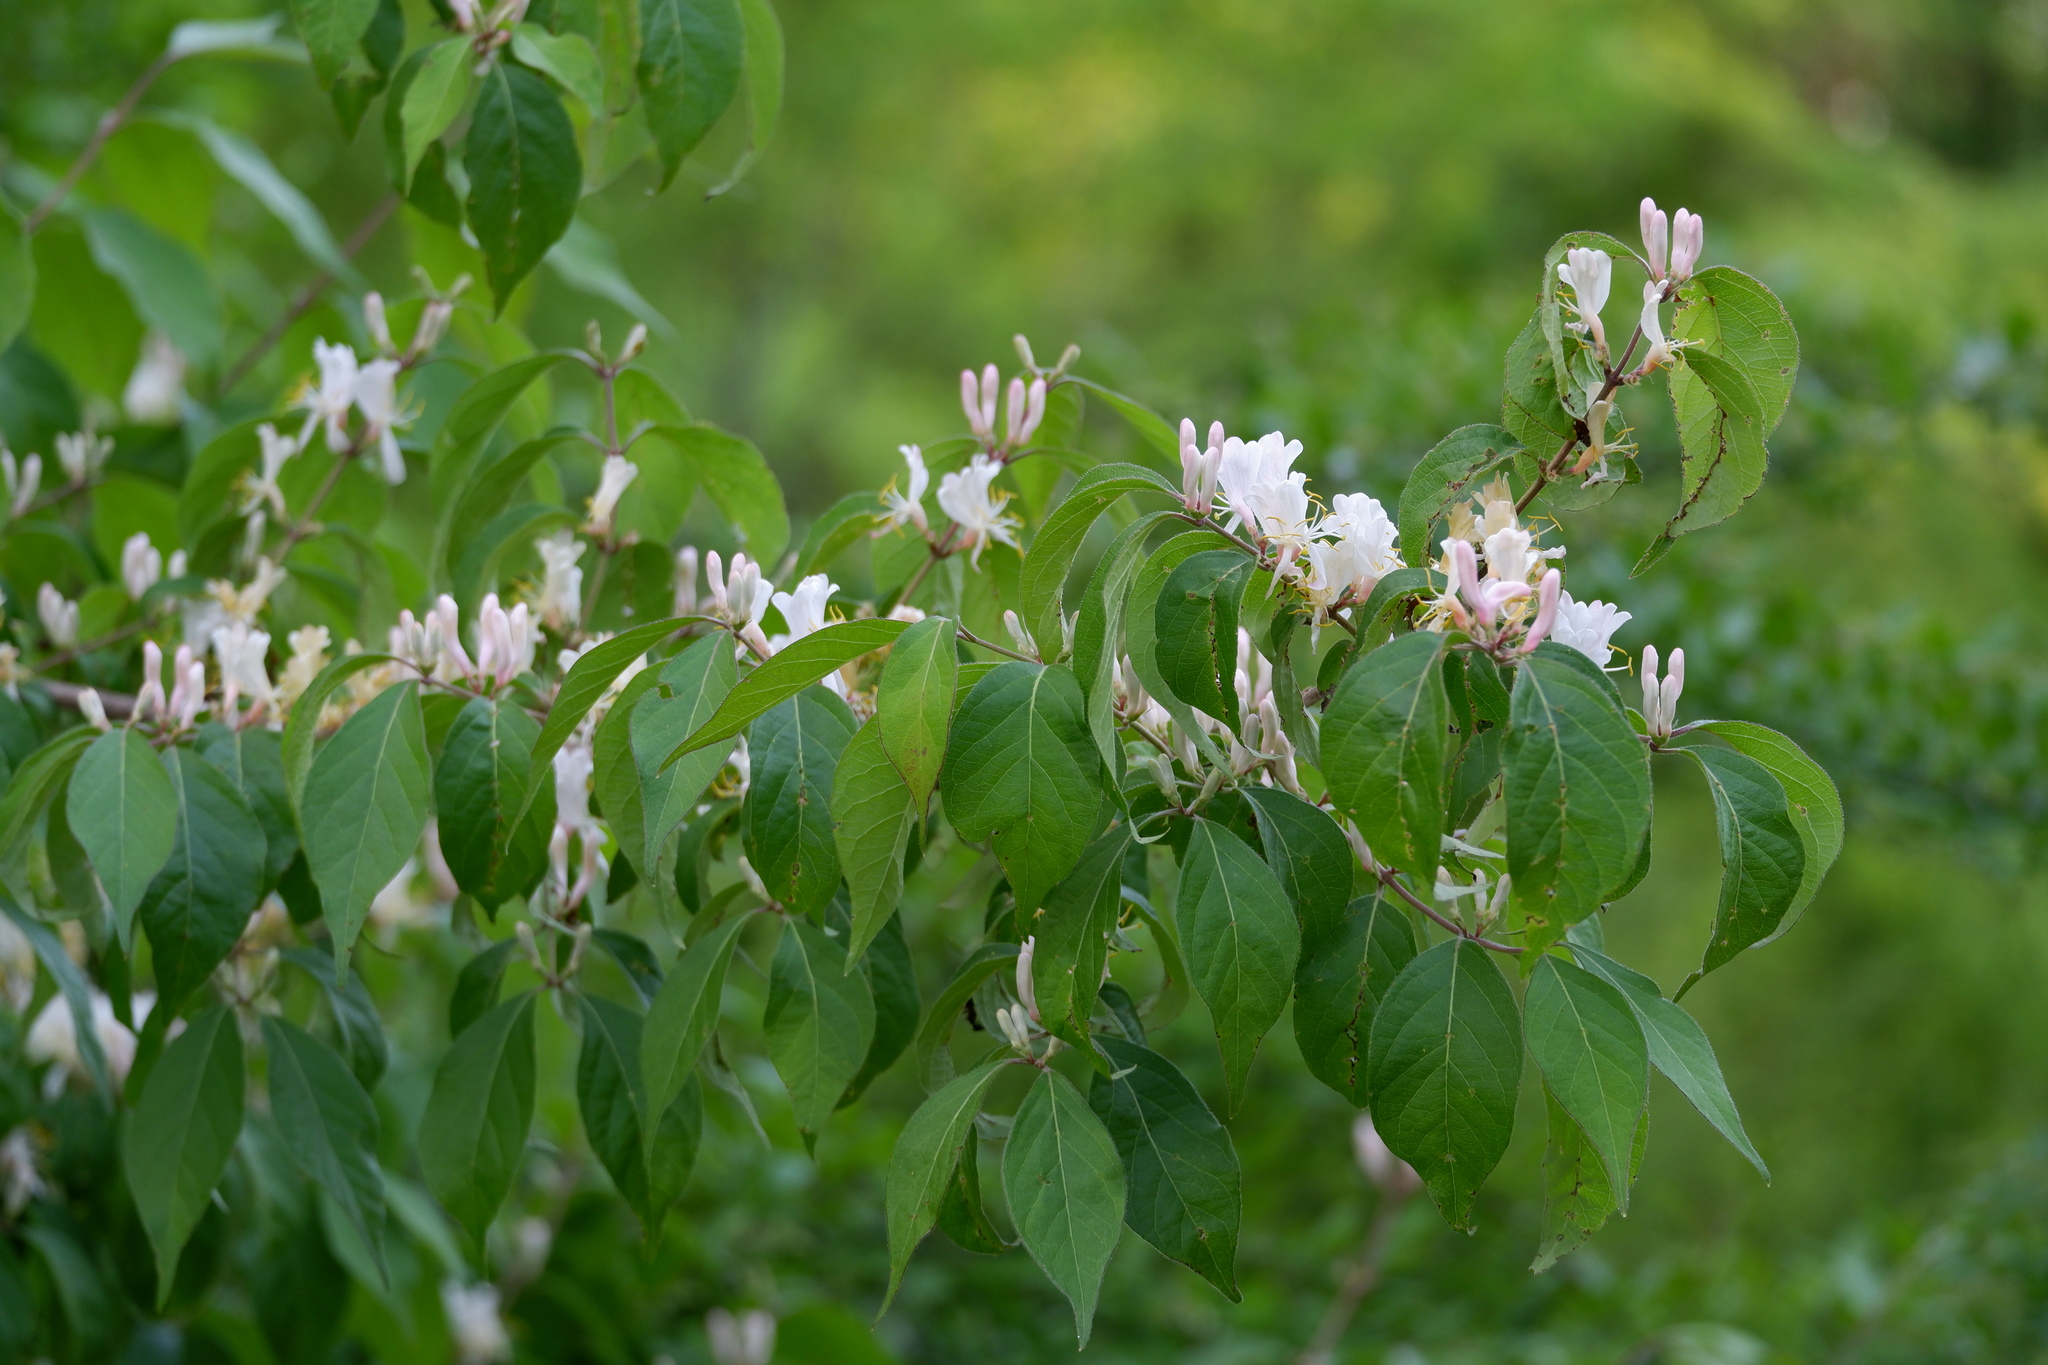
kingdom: Plantae
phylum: Tracheophyta
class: Magnoliopsida
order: Dipsacales
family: Caprifoliaceae
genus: Lonicera
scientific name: Lonicera maackii
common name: Amur honeysuckle
